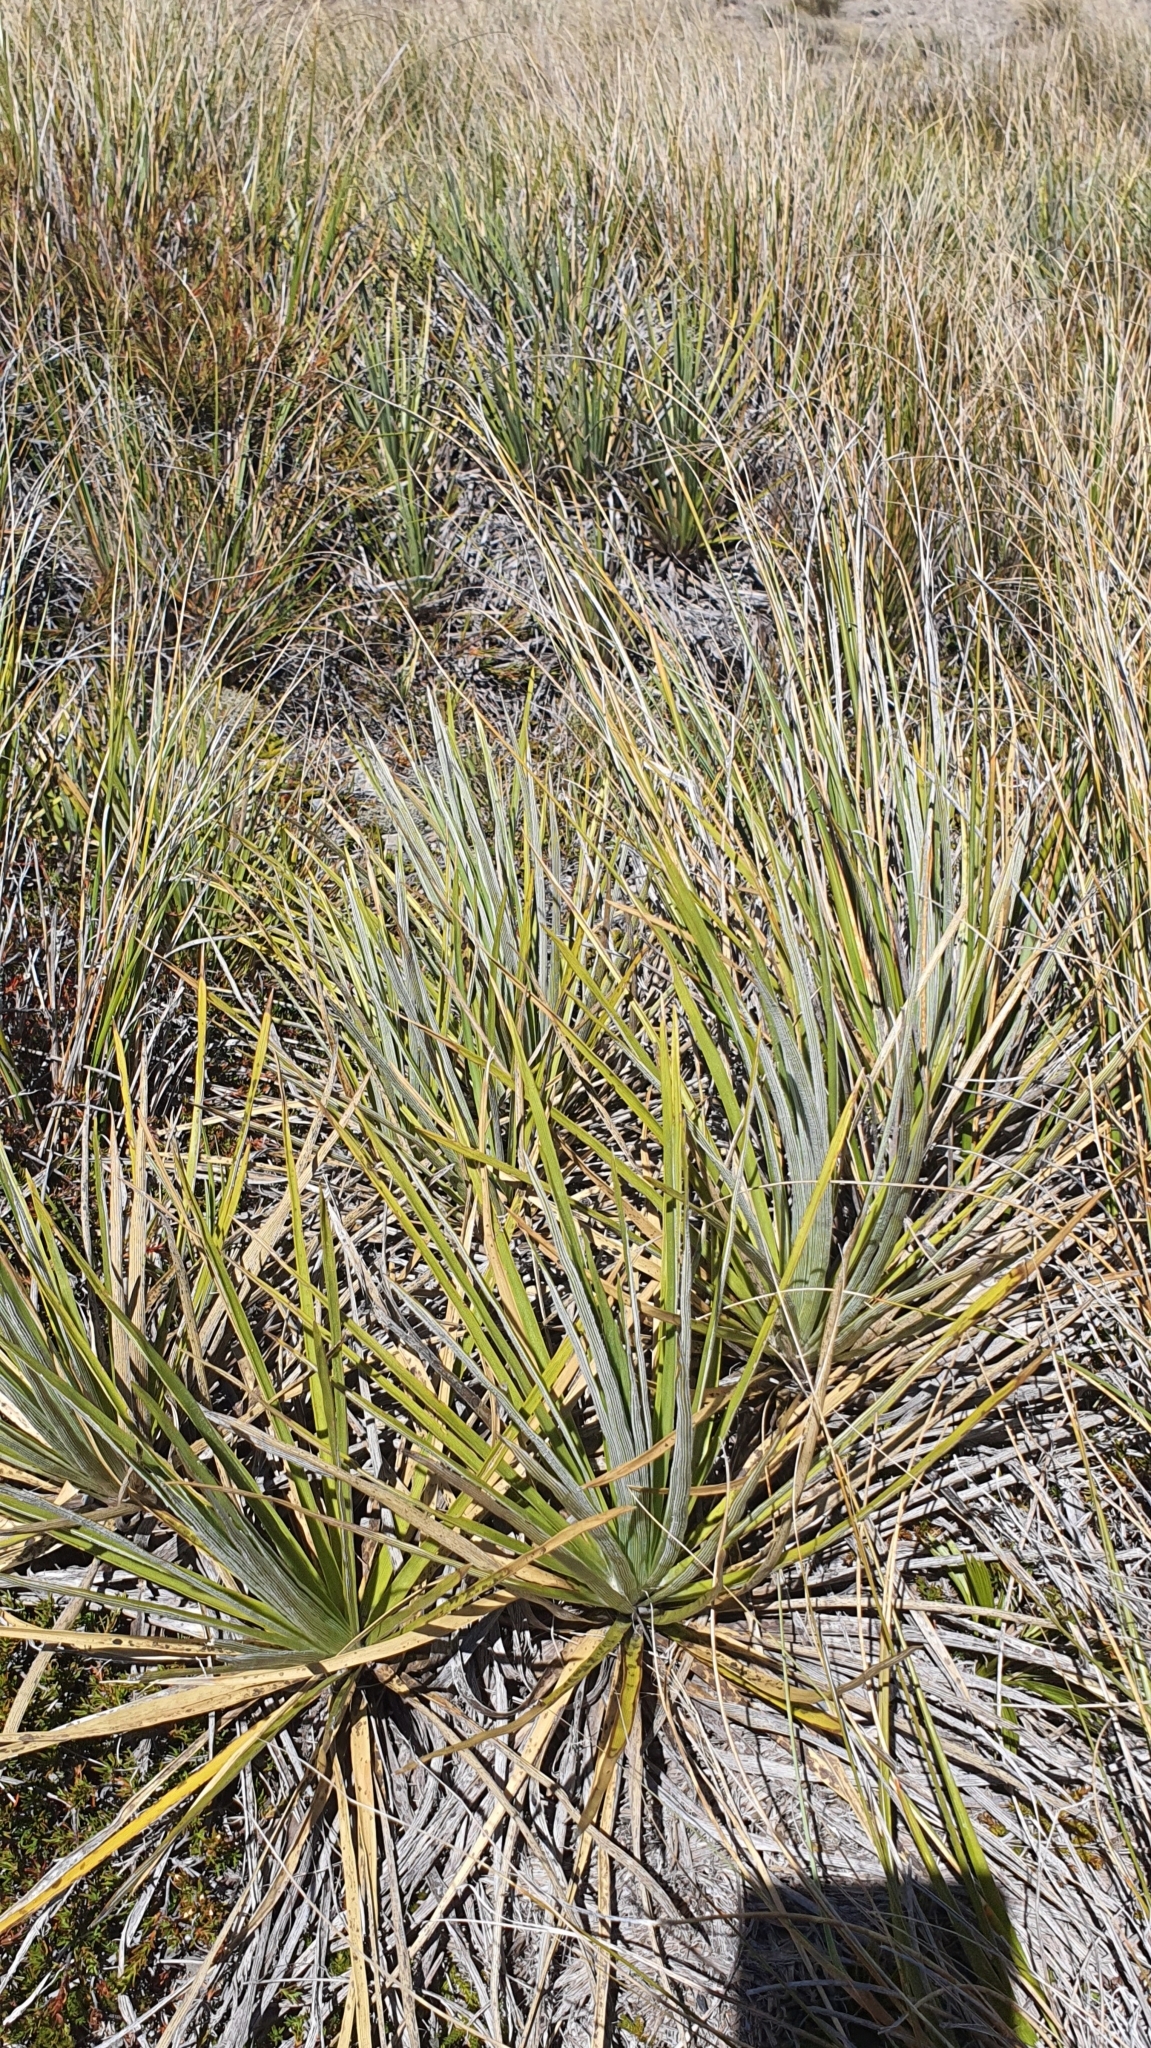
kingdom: Plantae
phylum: Tracheophyta
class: Magnoliopsida
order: Asterales
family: Asteraceae
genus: Celmisia
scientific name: Celmisia lyallii
